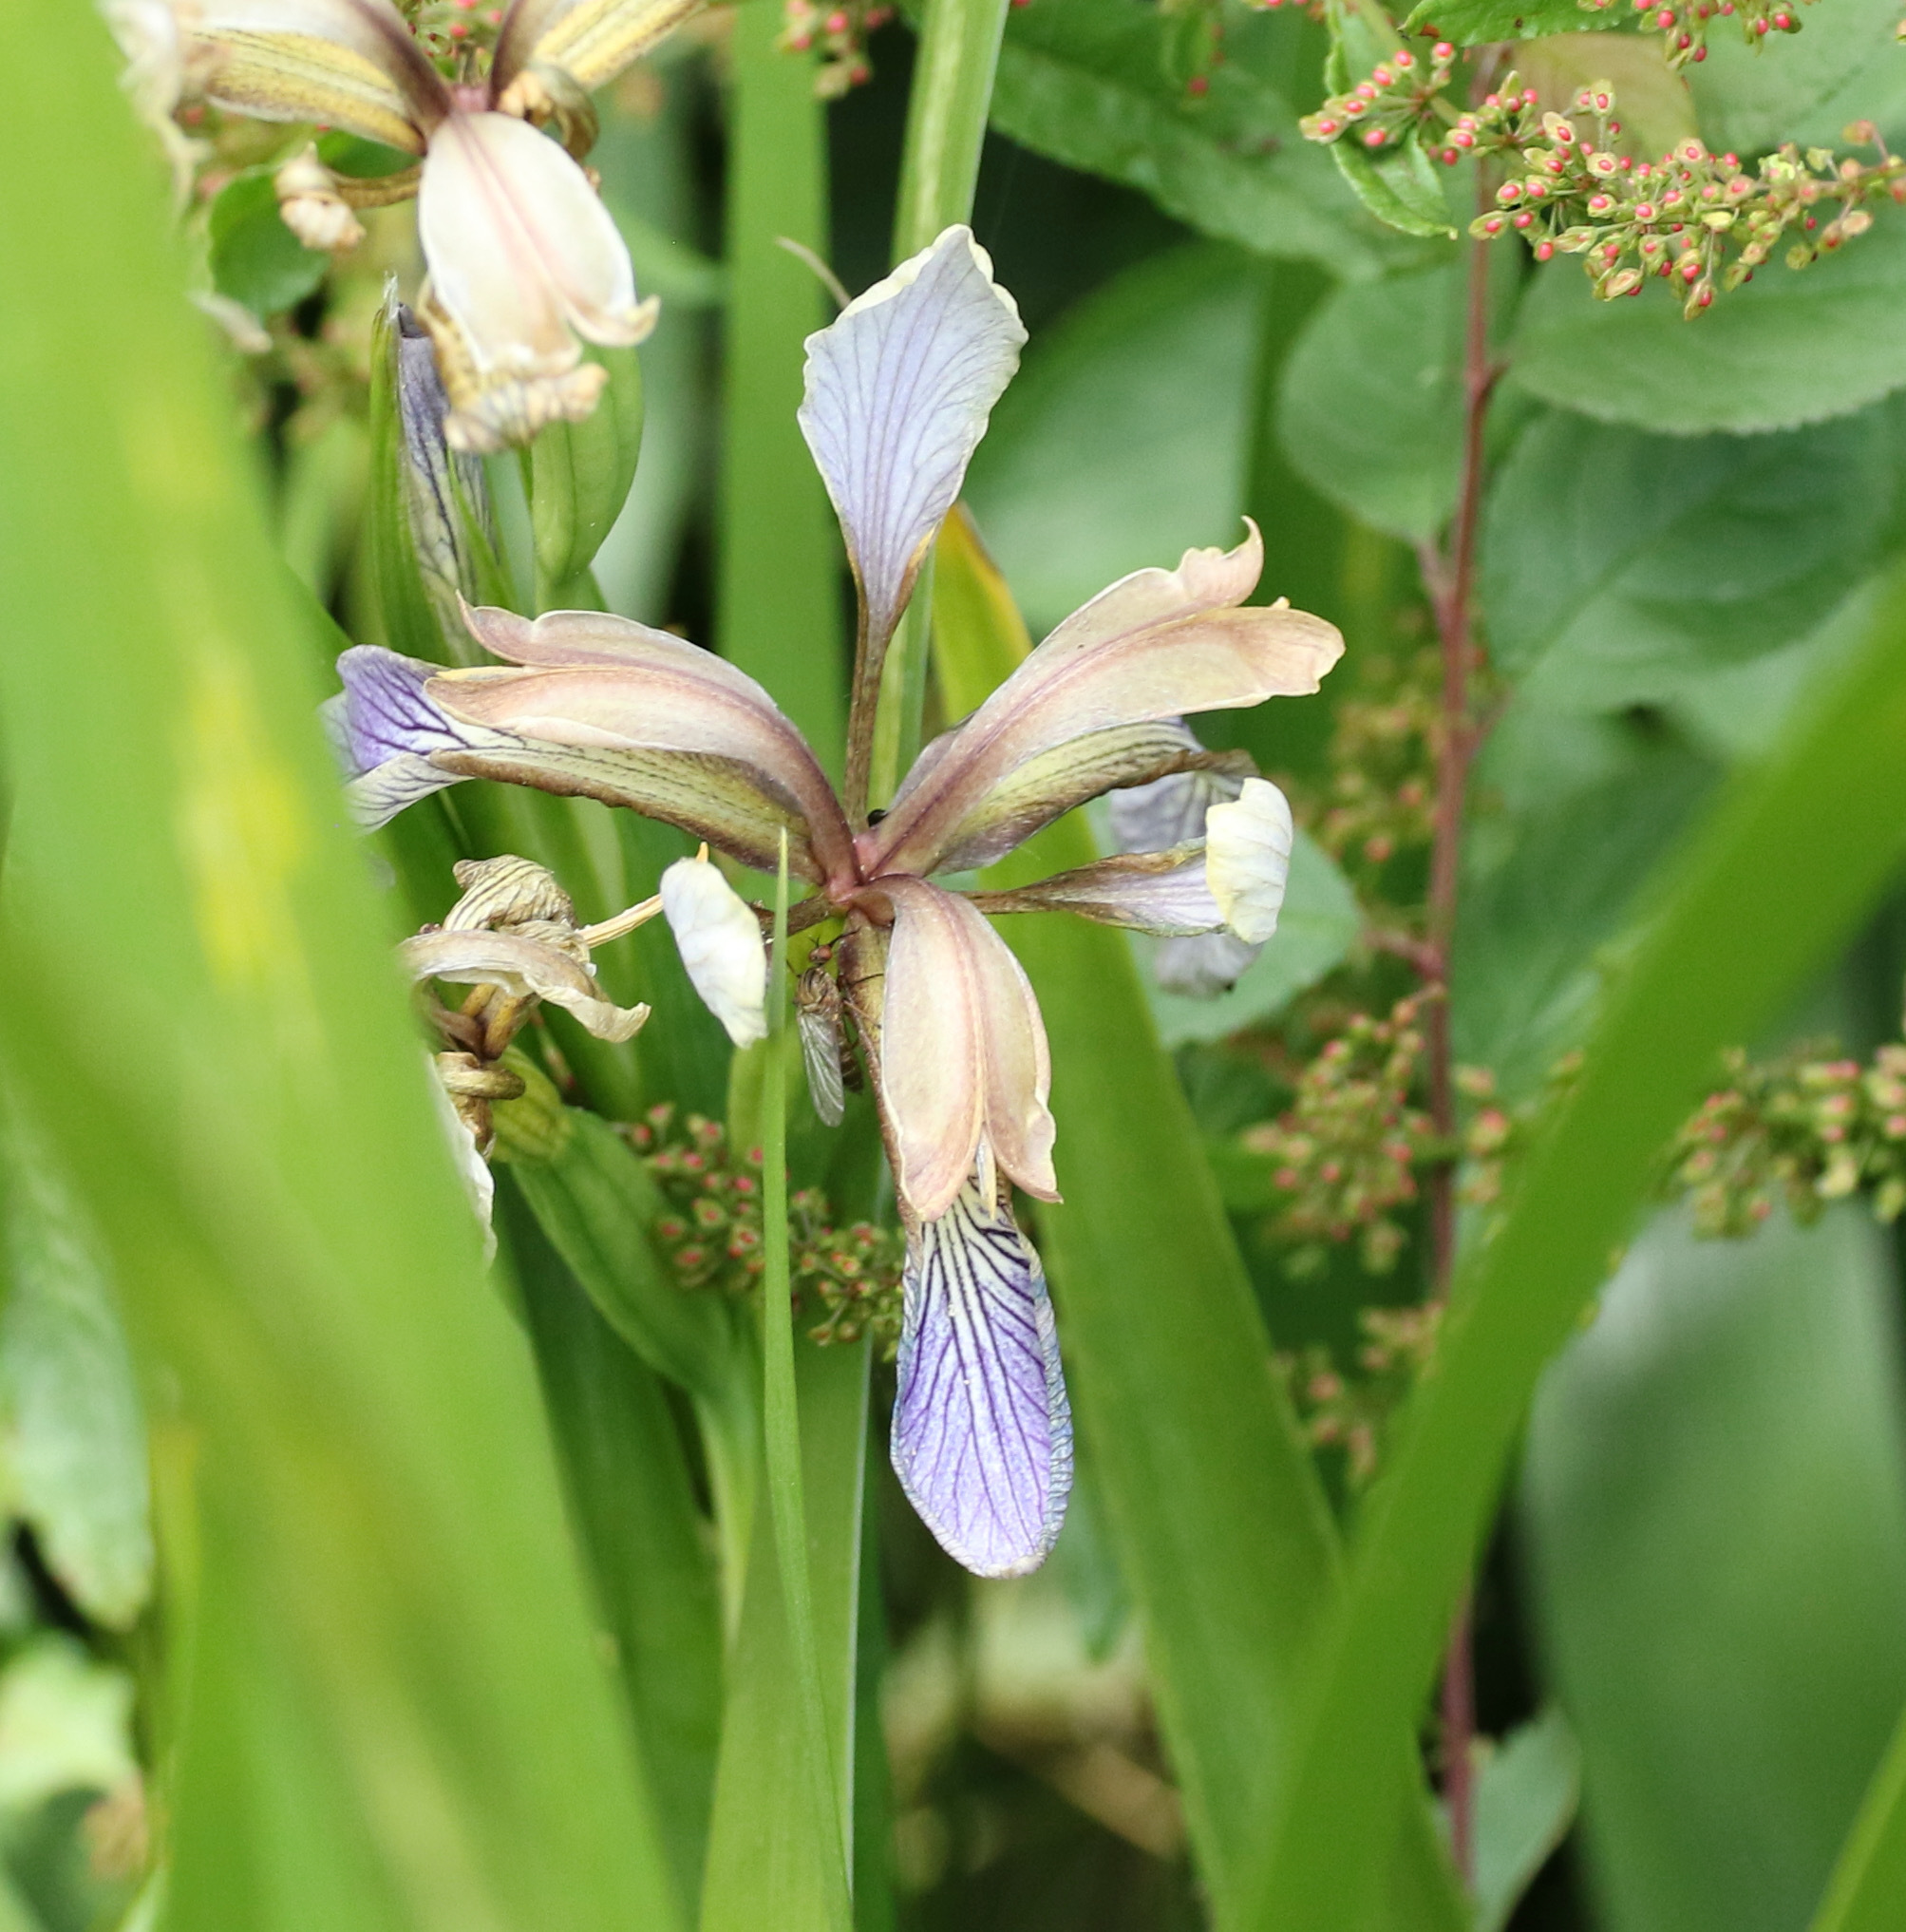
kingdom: Plantae
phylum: Tracheophyta
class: Liliopsida
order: Asparagales
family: Iridaceae
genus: Iris
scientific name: Iris foetidissima
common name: Stinking iris
